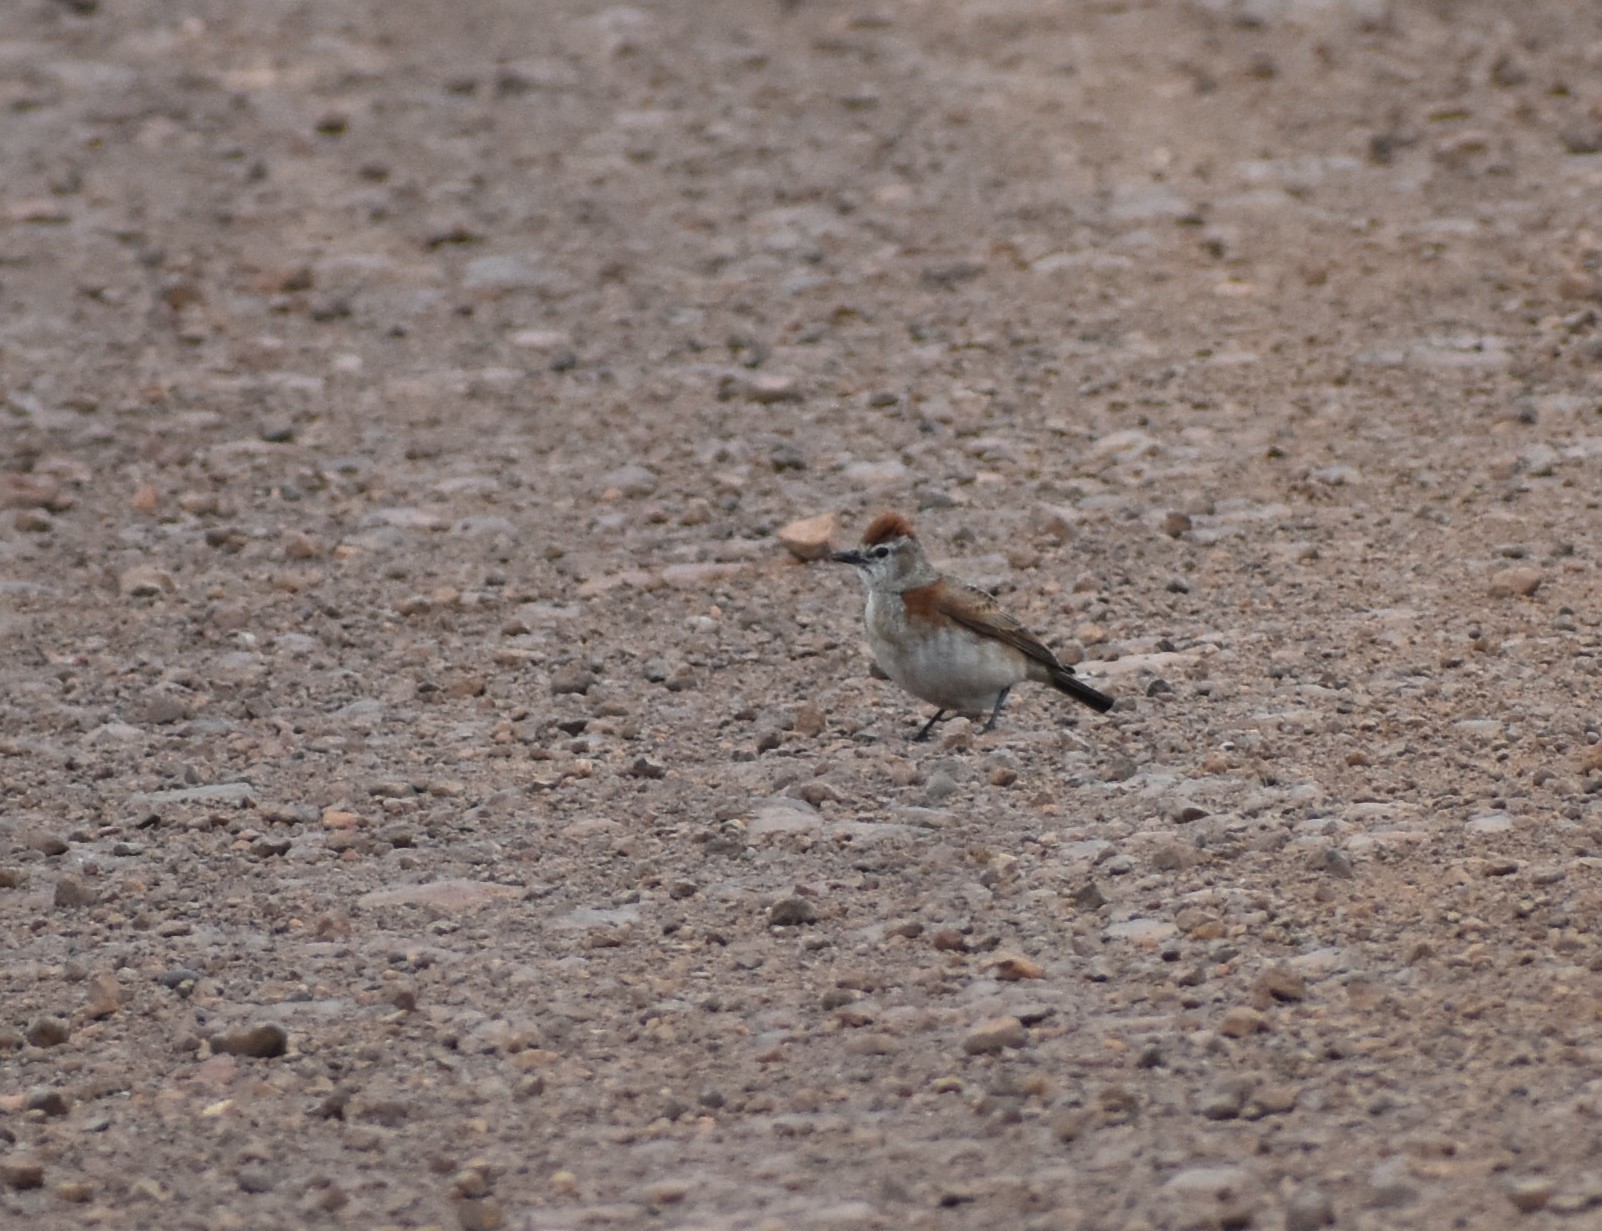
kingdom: Animalia
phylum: Chordata
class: Aves
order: Passeriformes
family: Alaudidae
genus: Calandrella
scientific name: Calandrella cinerea
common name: Red-capped lark
